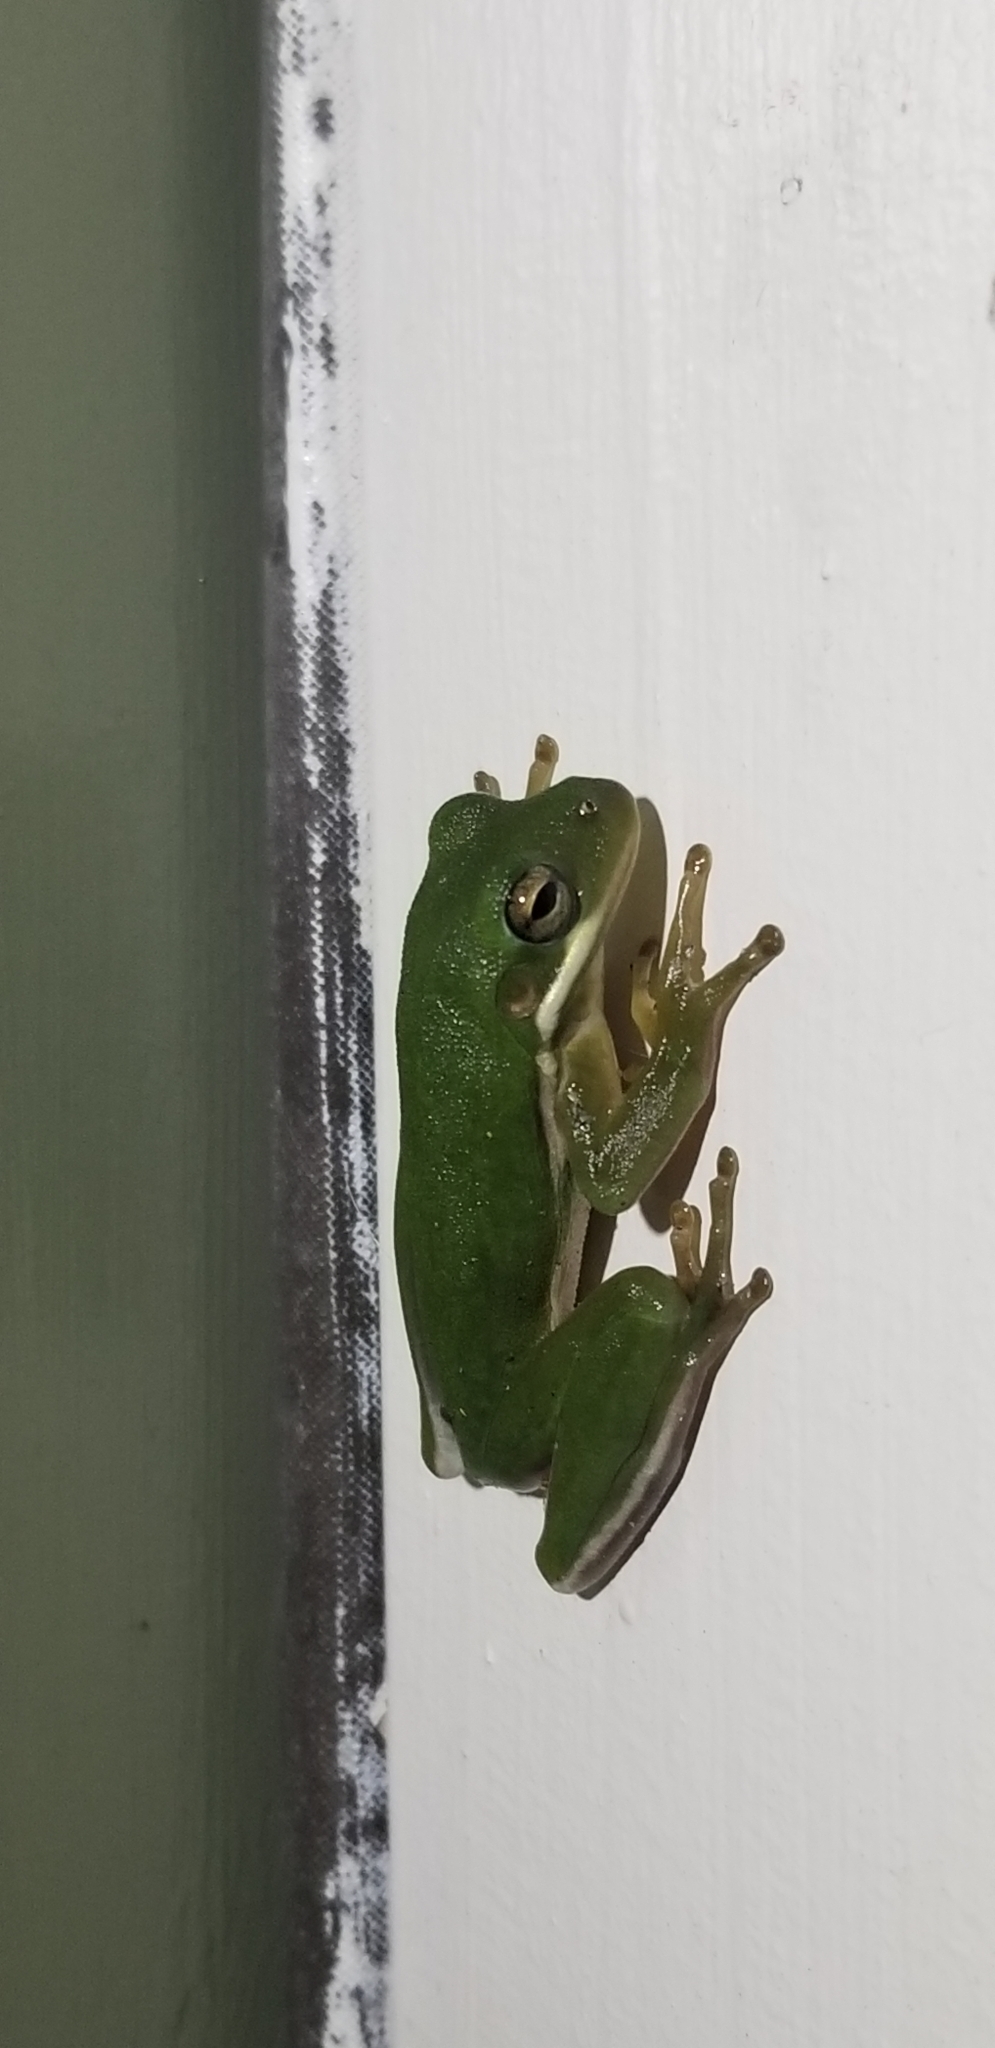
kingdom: Animalia
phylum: Chordata
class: Amphibia
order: Anura
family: Hylidae
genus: Dryophytes
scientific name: Dryophytes cinereus
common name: Green treefrog
